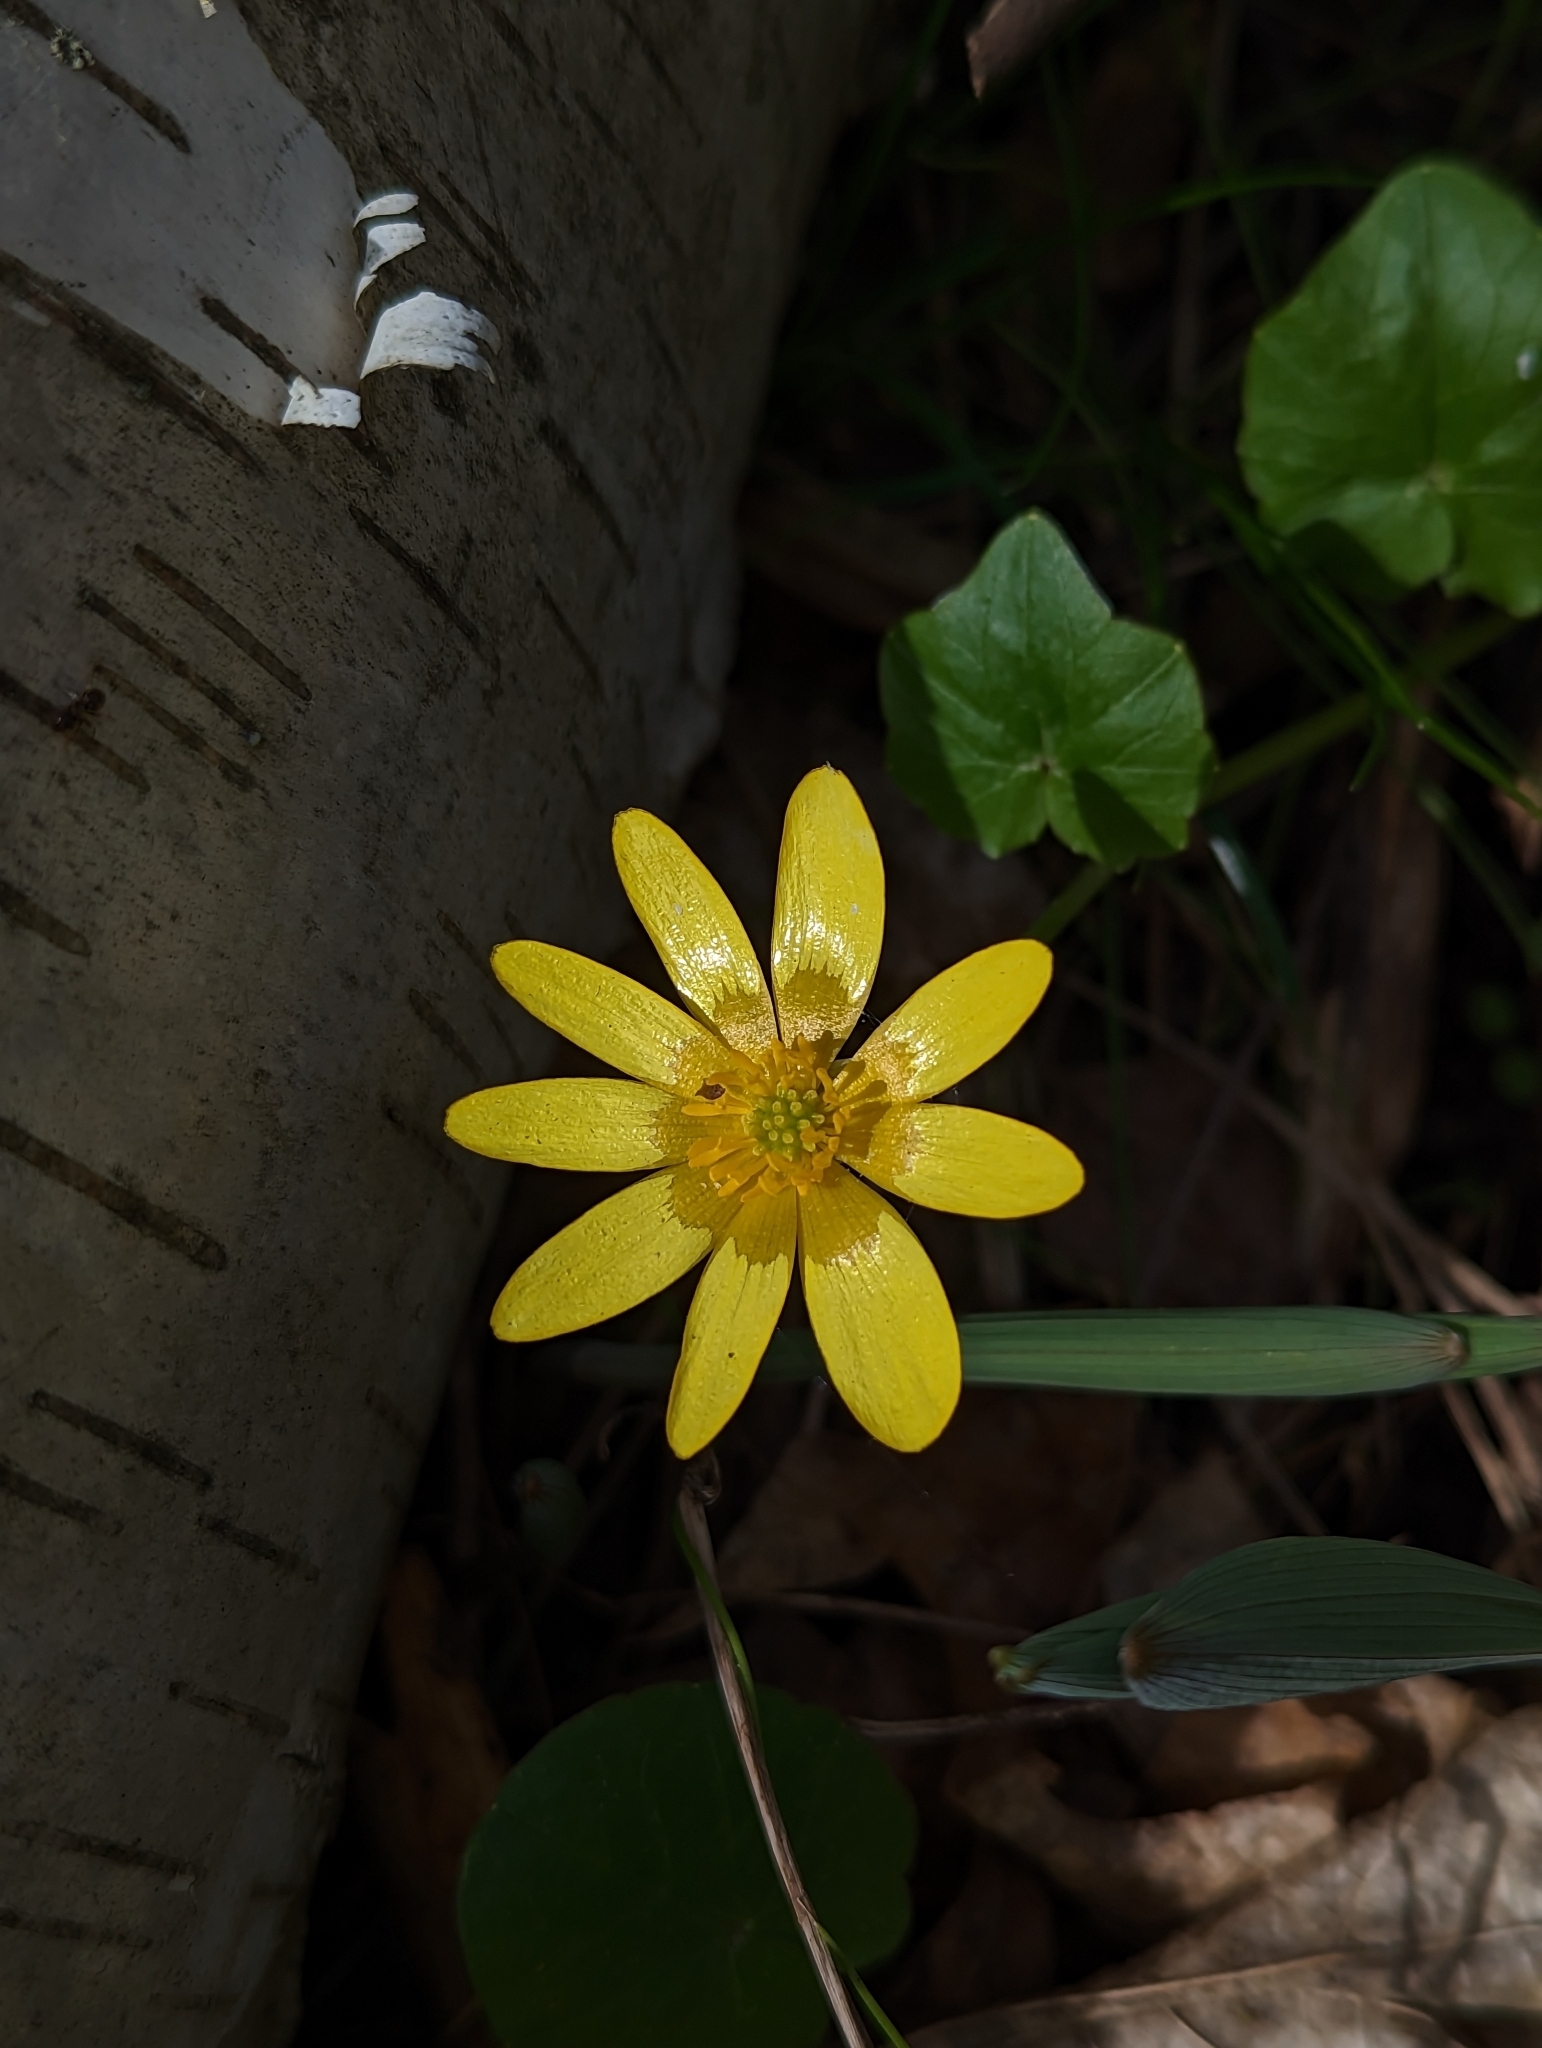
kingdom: Plantae
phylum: Tracheophyta
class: Magnoliopsida
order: Ranunculales
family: Ranunculaceae
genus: Ficaria
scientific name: Ficaria verna
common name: Lesser celandine
